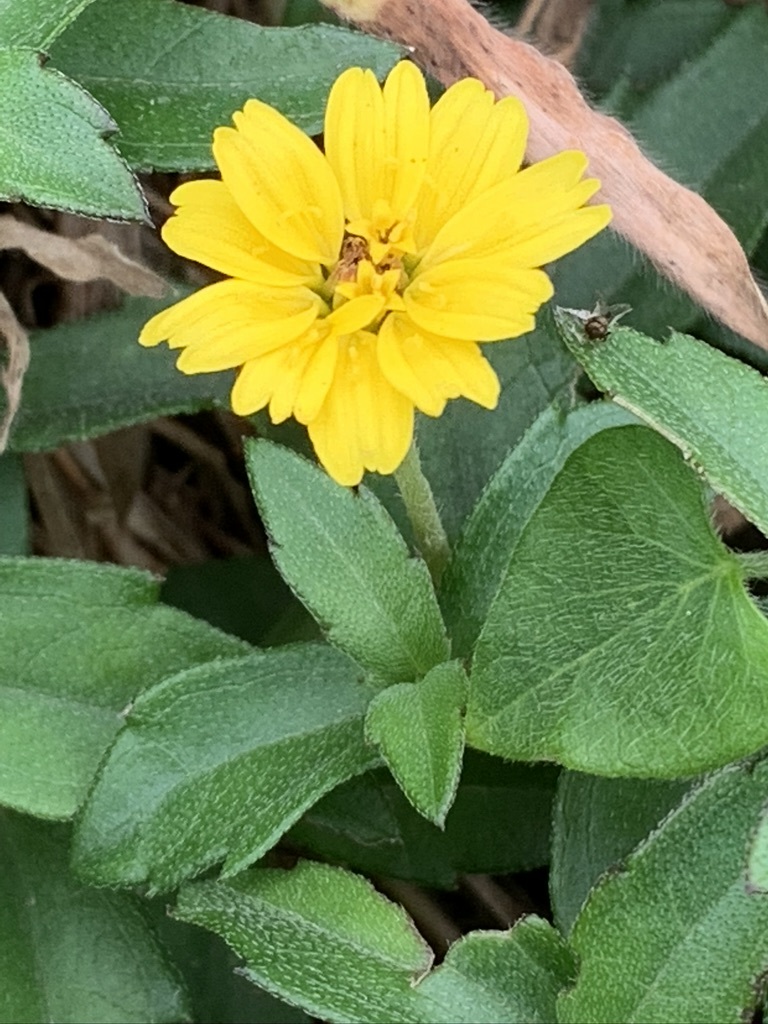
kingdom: Plantae
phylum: Tracheophyta
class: Magnoliopsida
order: Asterales
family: Asteraceae
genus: Sphagneticola
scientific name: Sphagneticola calendulacea
